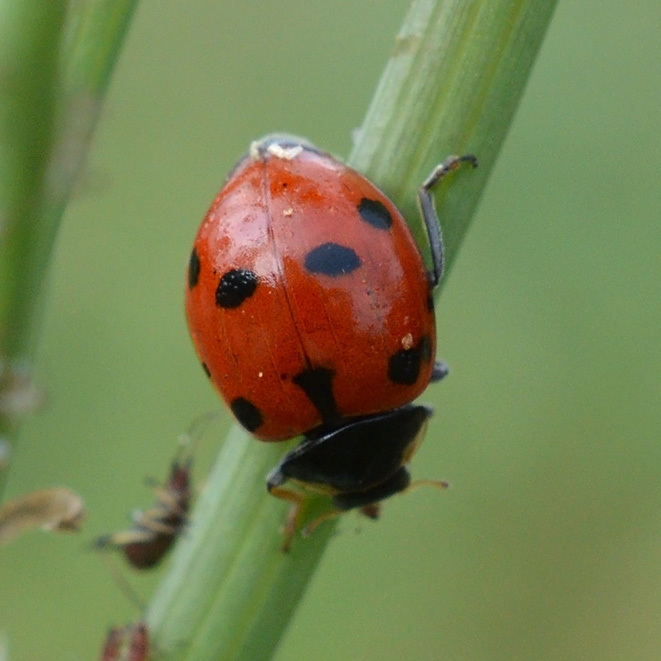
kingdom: Animalia
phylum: Arthropoda
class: Insecta
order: Coleoptera
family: Coccinellidae
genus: Coccinella
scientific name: Coccinella septempunctata
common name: Sevenspotted lady beetle
